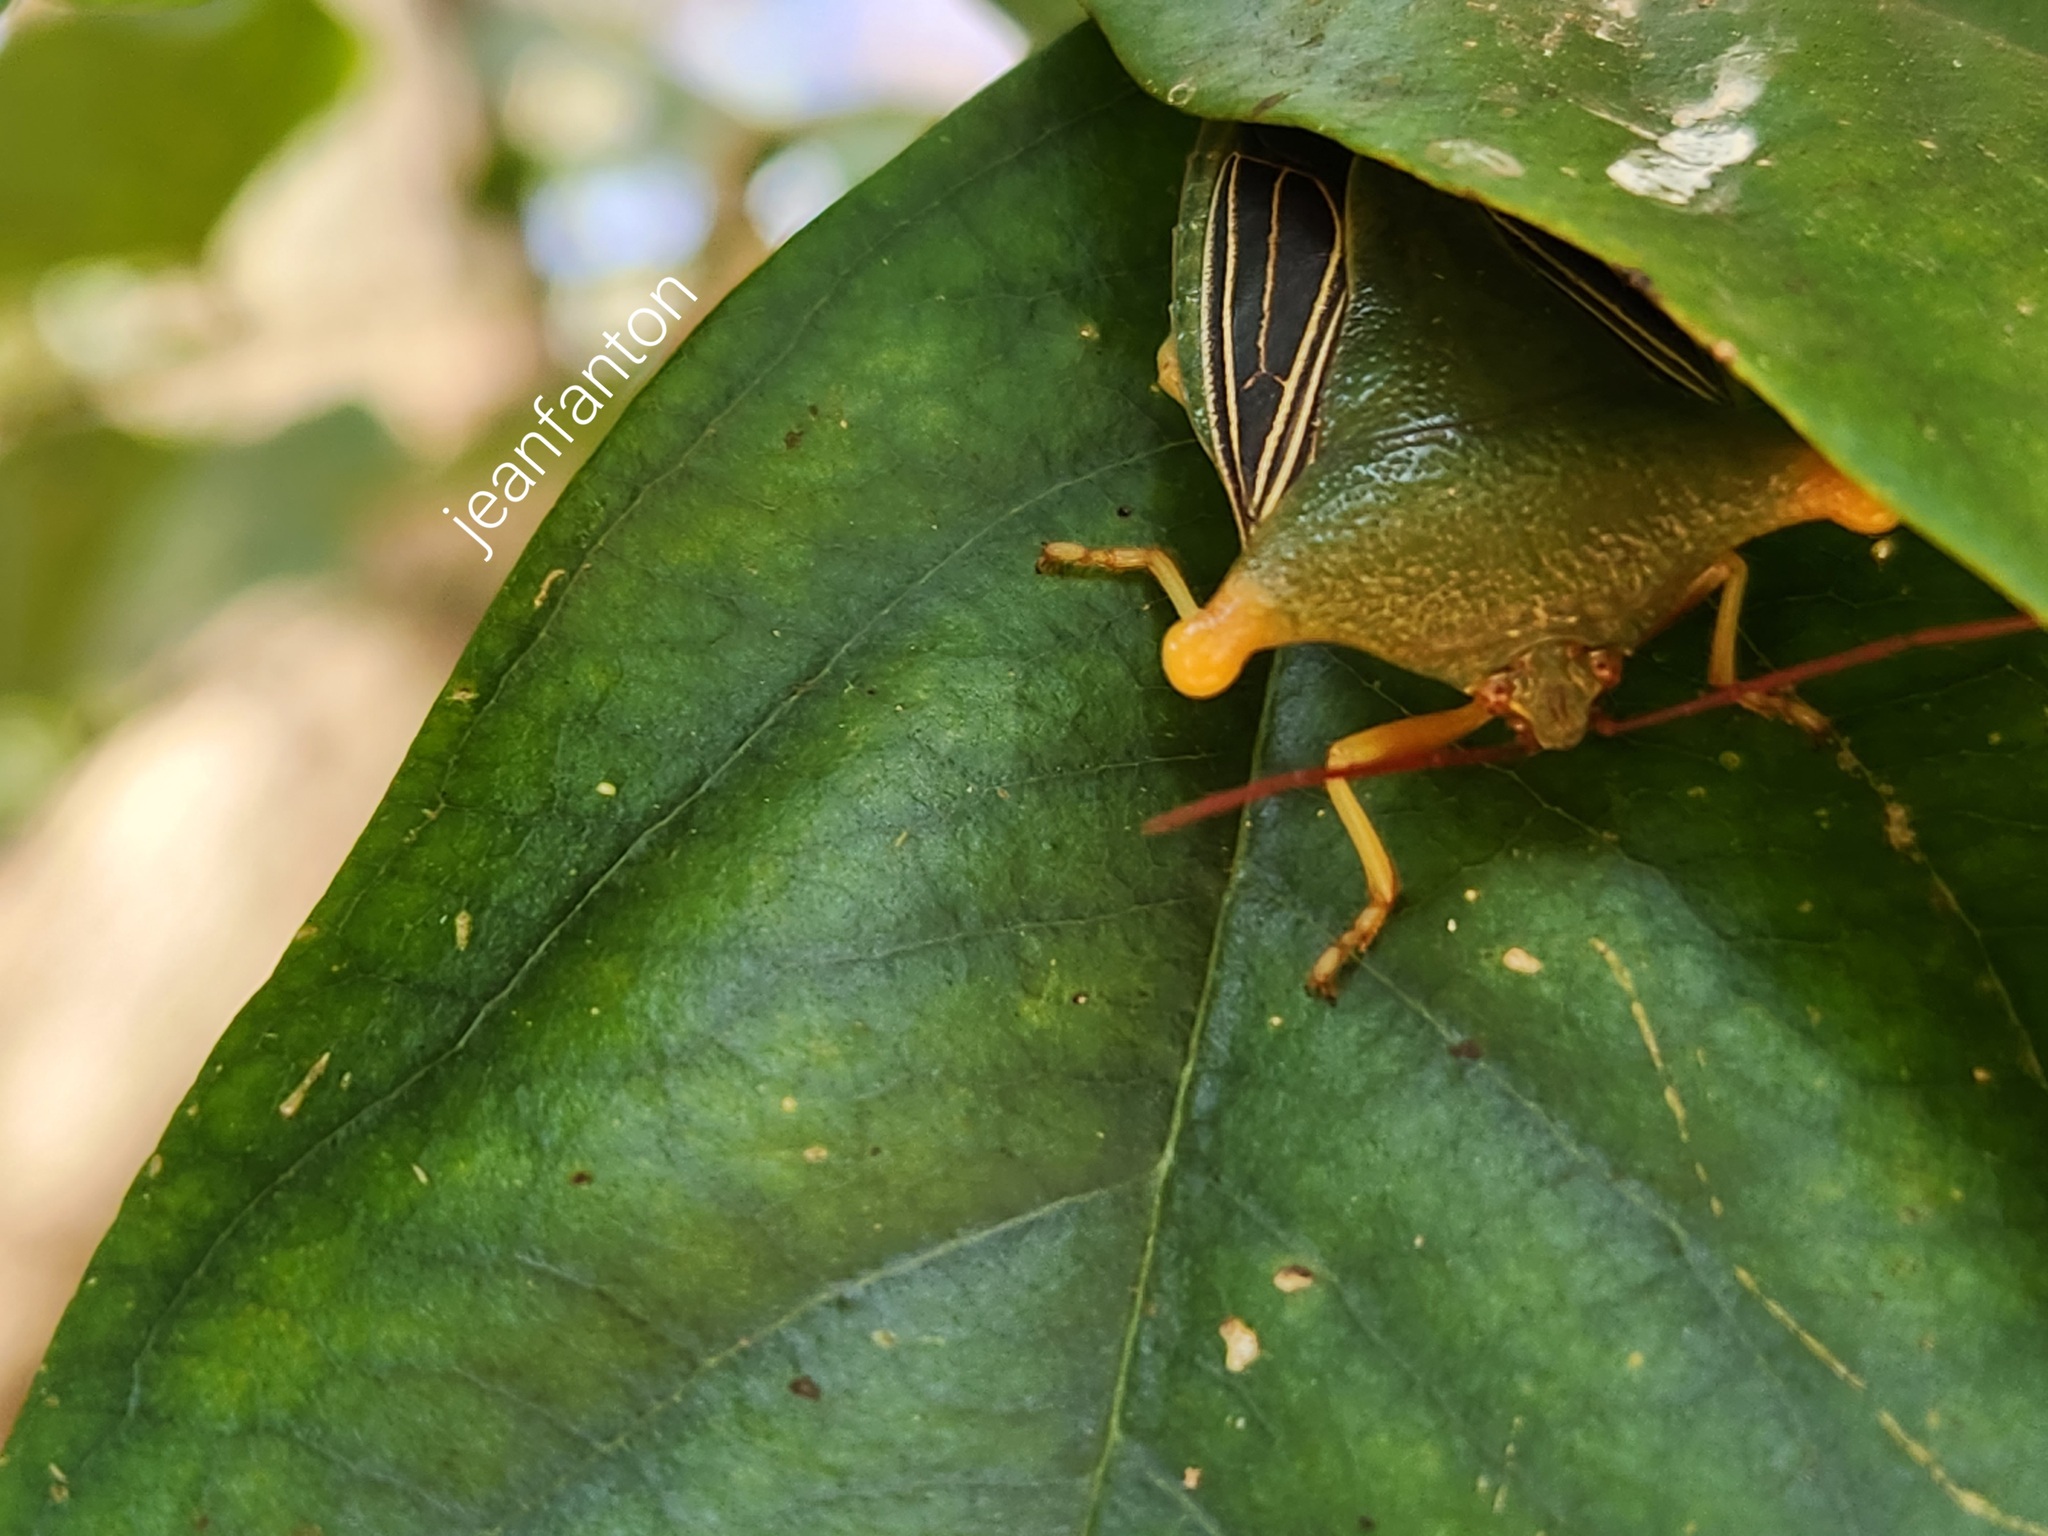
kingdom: Animalia
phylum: Arthropoda
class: Insecta
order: Hemiptera
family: Pentatomidae
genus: Peromatus
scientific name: Peromatus sulcifer
